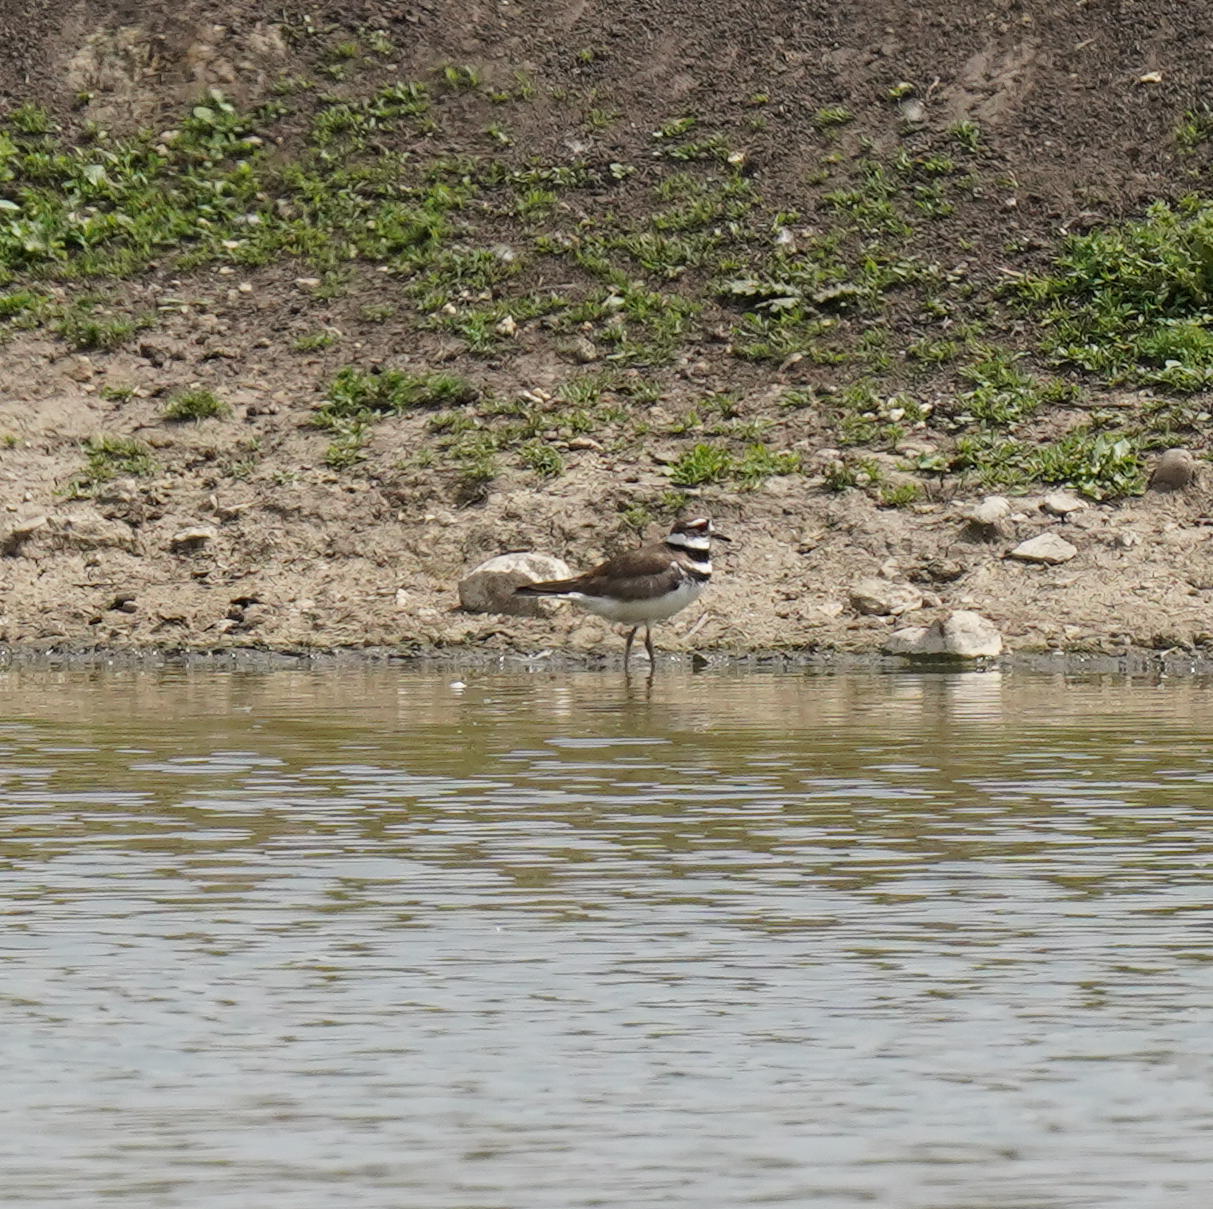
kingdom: Animalia
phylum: Chordata
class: Aves
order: Charadriiformes
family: Charadriidae
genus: Charadrius
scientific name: Charadrius vociferus
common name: Killdeer
